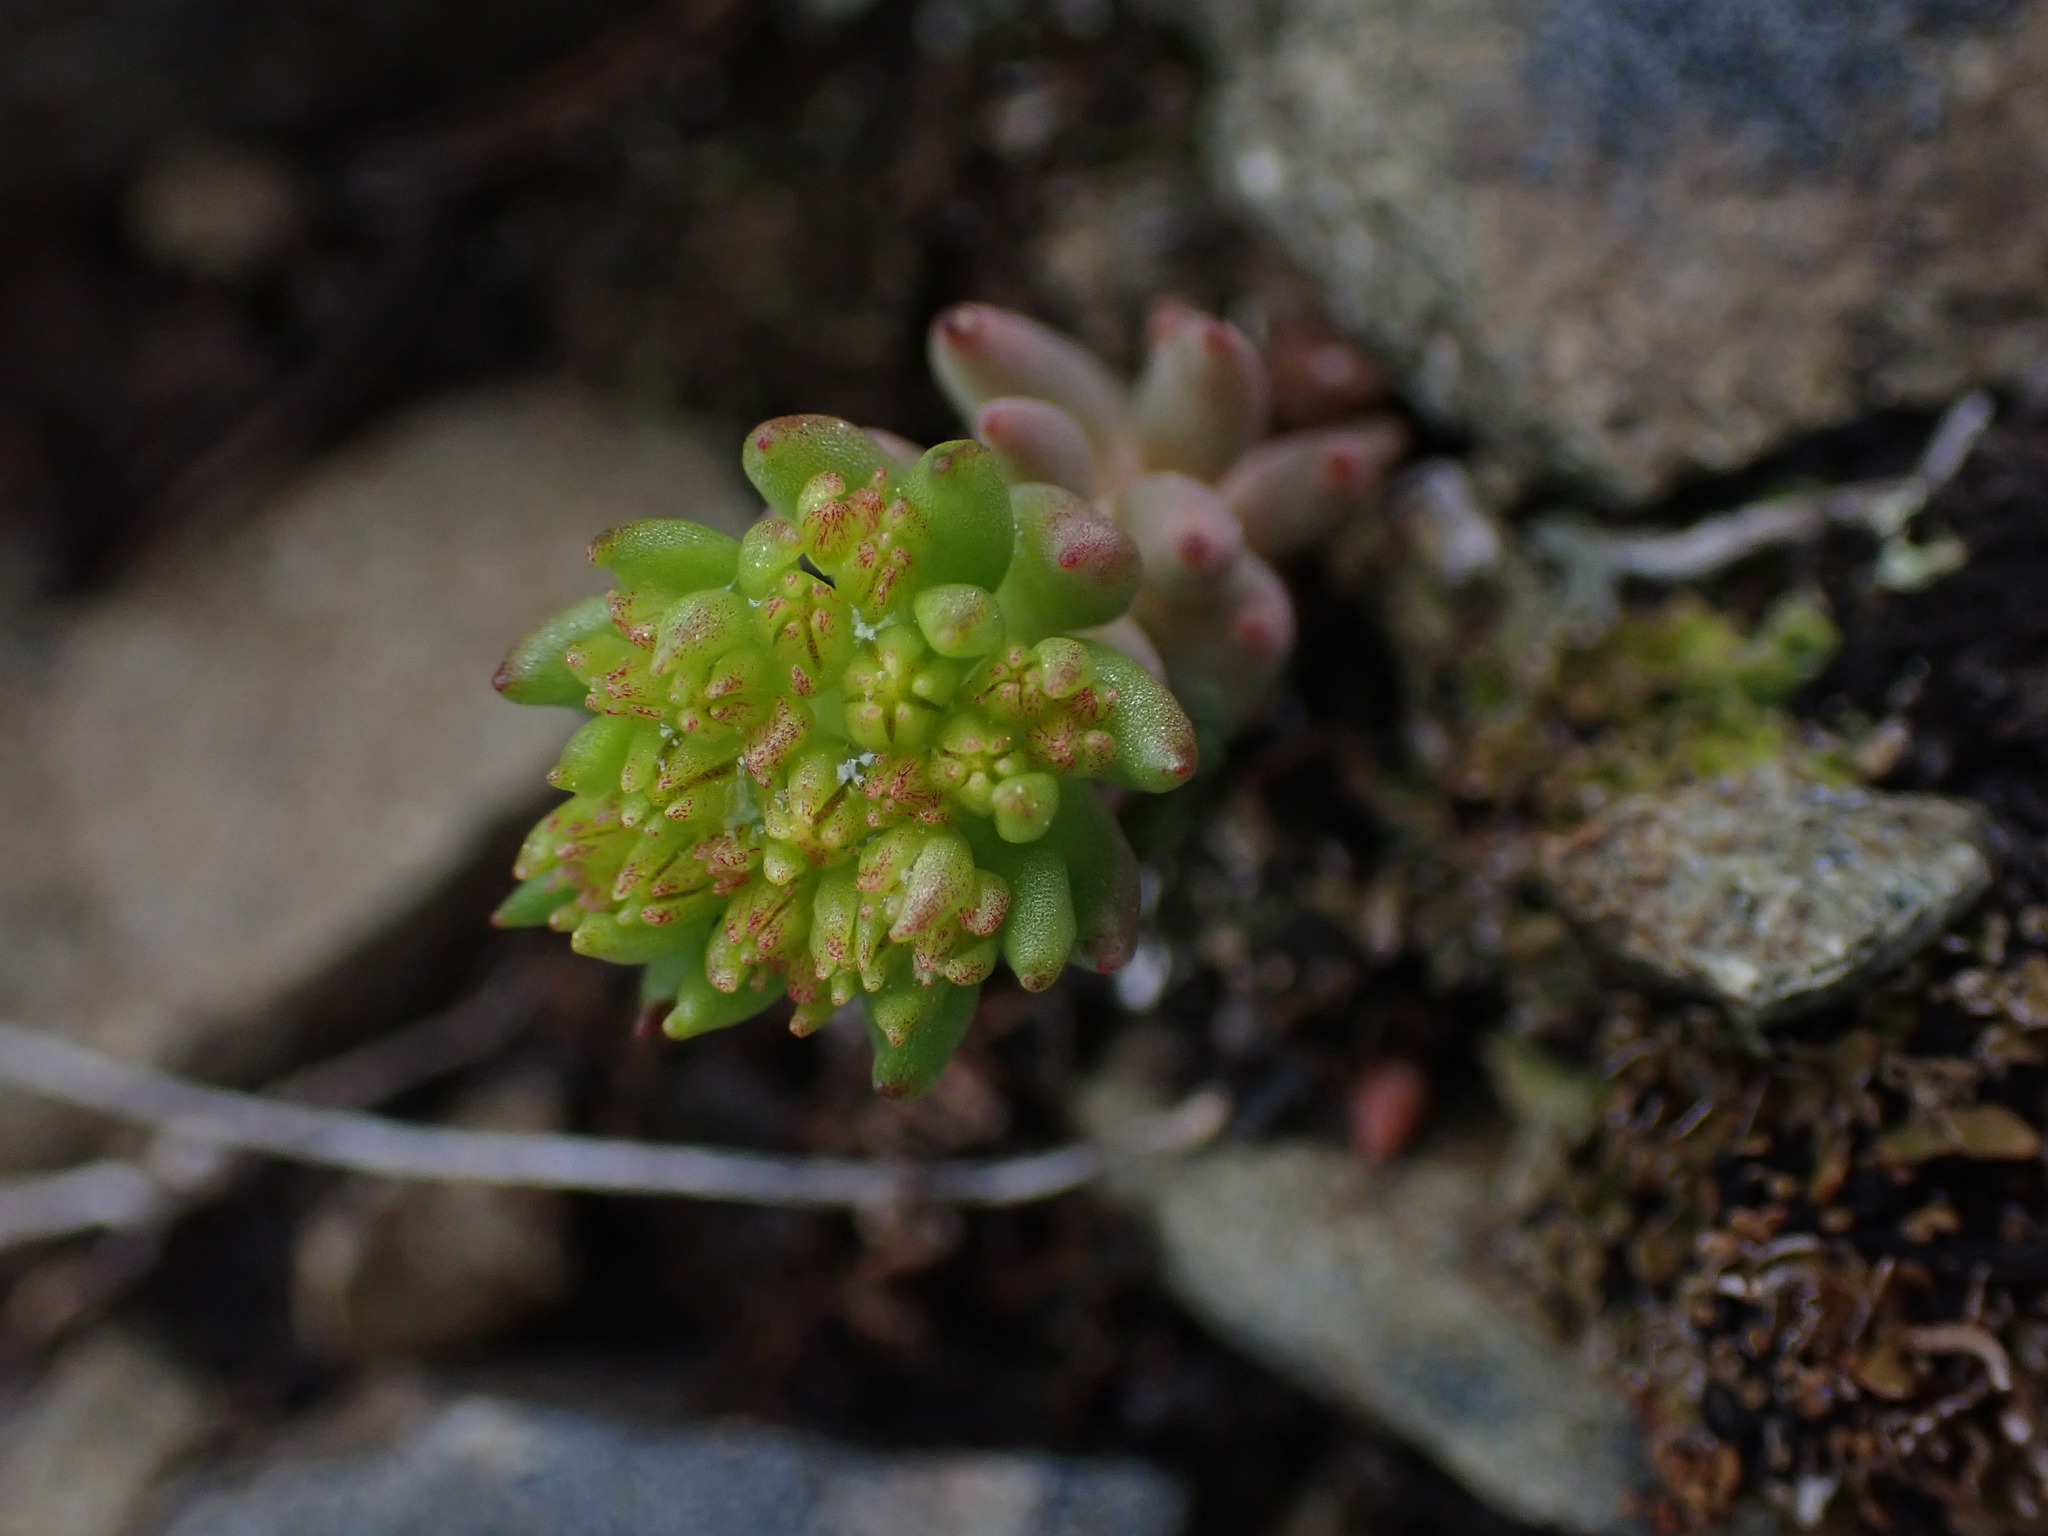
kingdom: Plantae
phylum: Tracheophyta
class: Magnoliopsida
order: Saxifragales
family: Crassulaceae
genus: Sedum
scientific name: Sedum lanceolatum
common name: Common stonecrop
